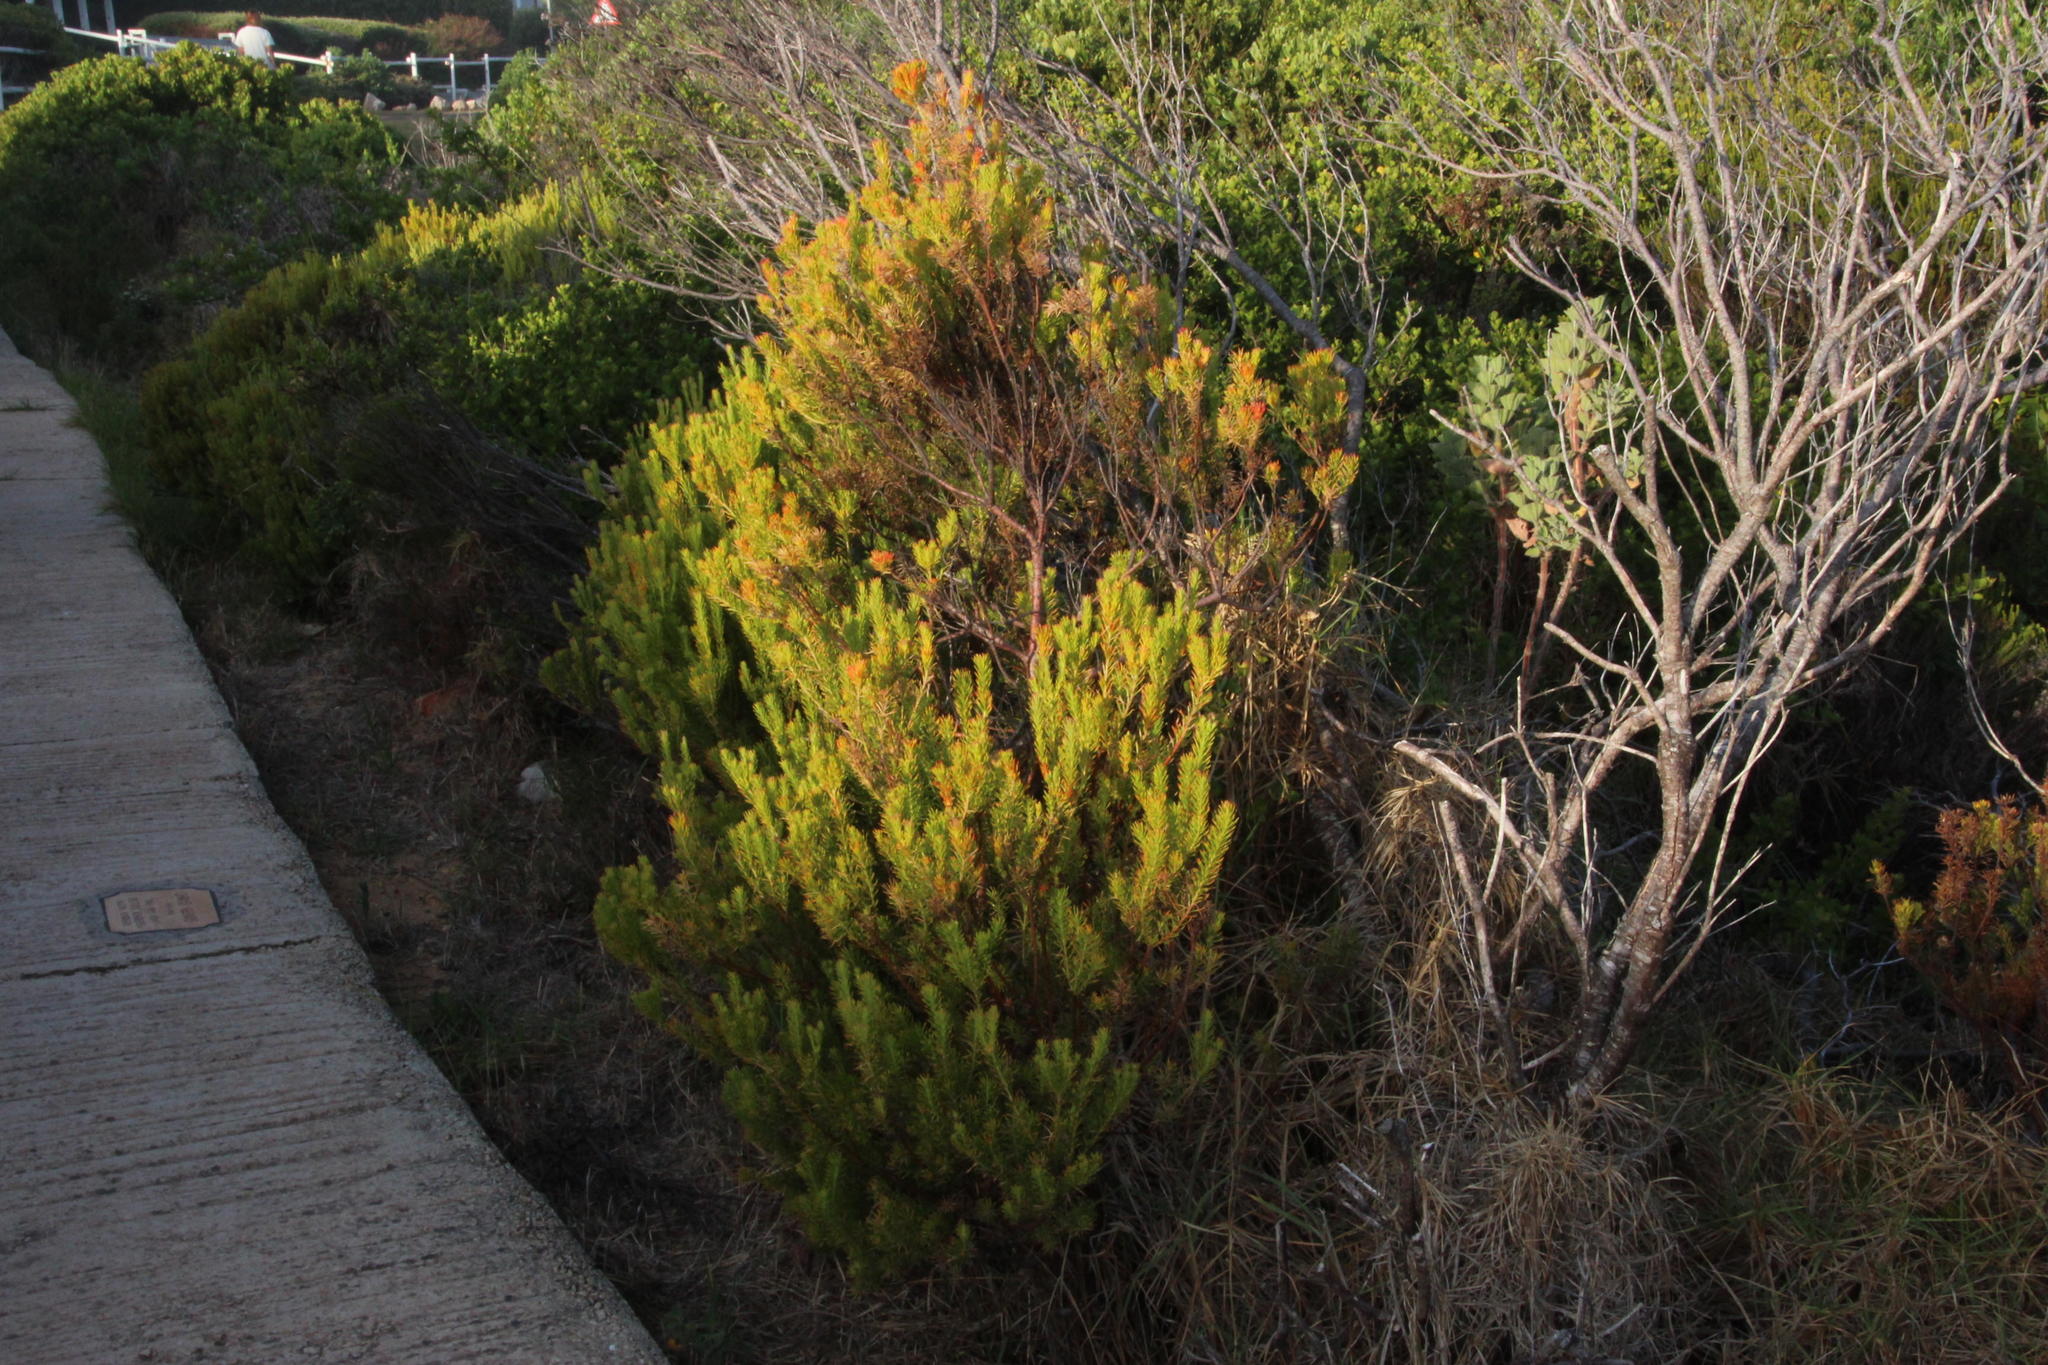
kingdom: Plantae
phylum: Tracheophyta
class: Magnoliopsida
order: Proteales
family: Proteaceae
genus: Leucadendron
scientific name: Leucadendron linifolium
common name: Line-leaf conebush
